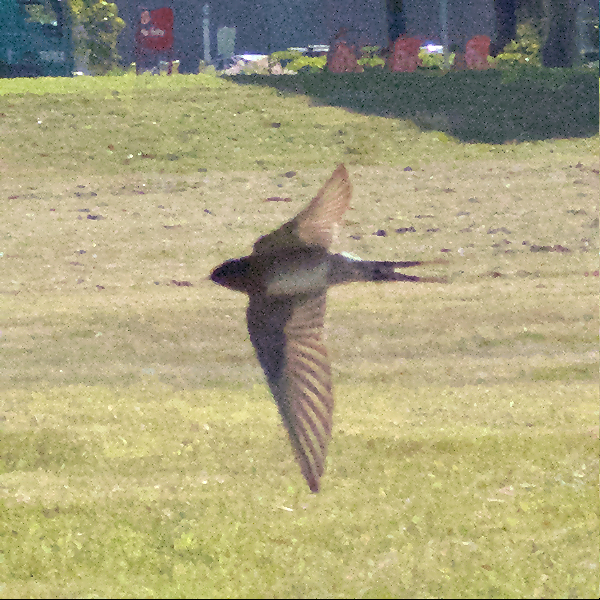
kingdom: Animalia
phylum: Chordata
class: Aves
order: Passeriformes
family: Hirundinidae
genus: Hirundo
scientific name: Hirundo neoxena
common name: Welcome swallow
